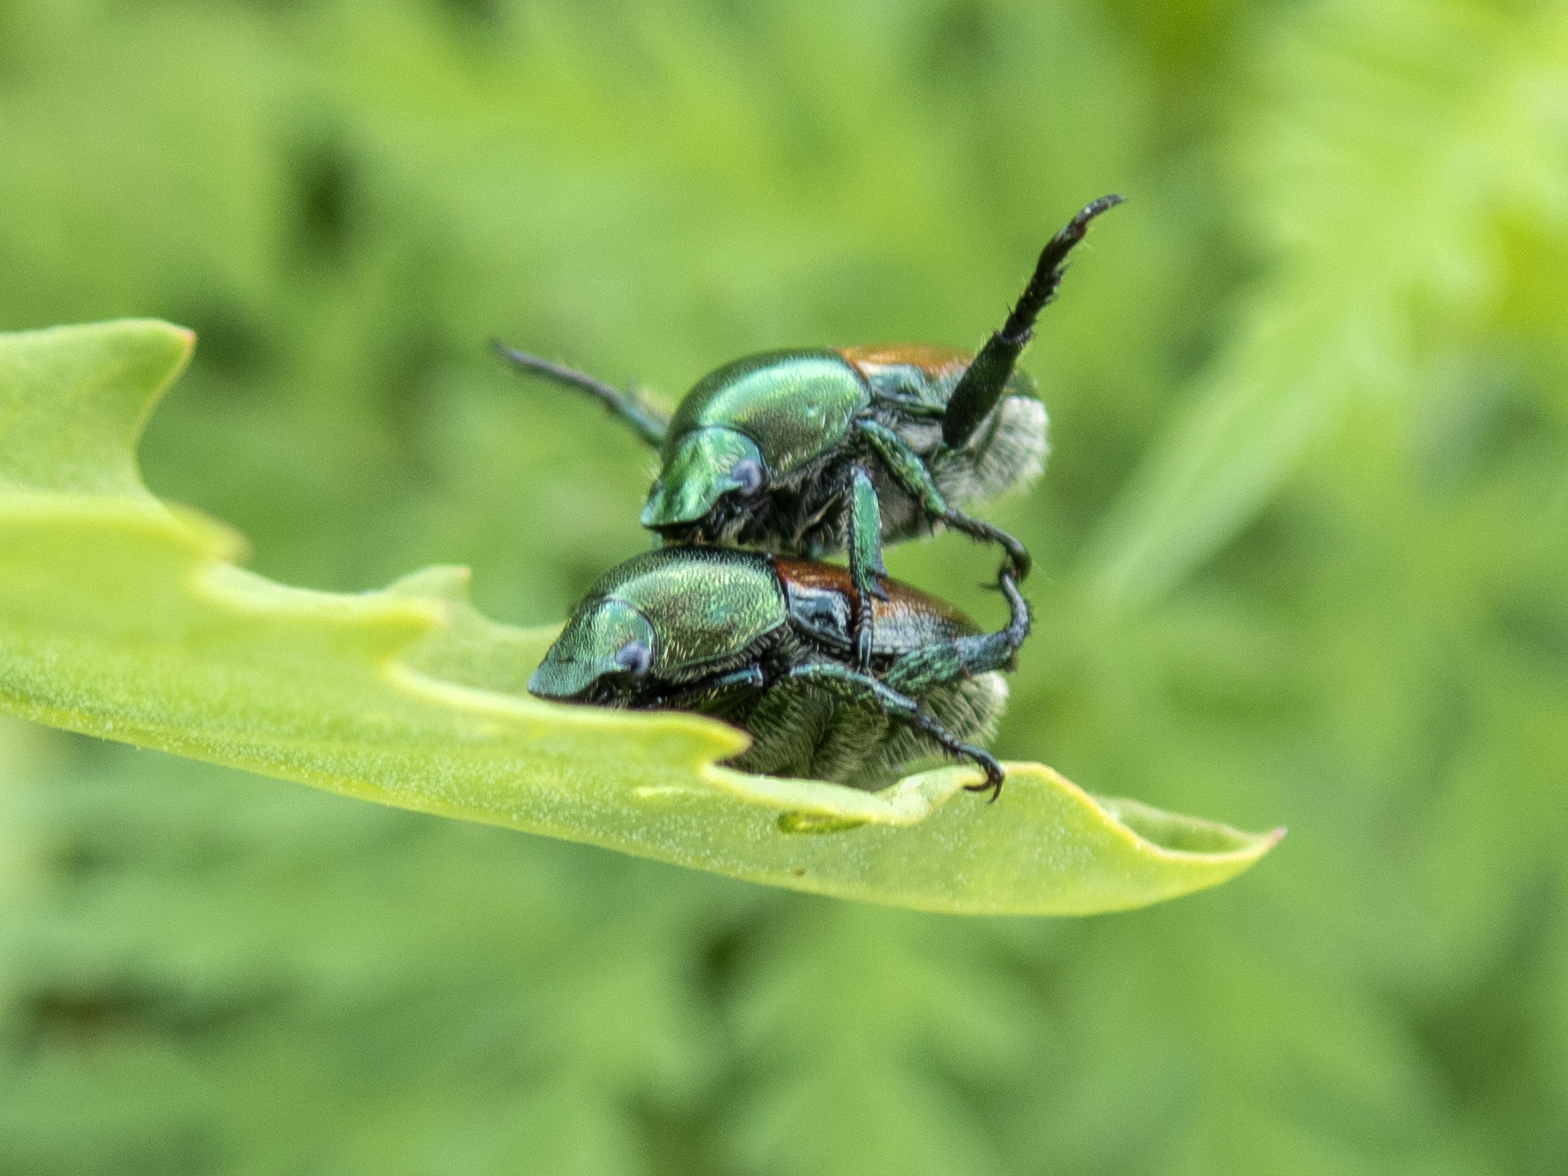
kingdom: Animalia
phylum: Arthropoda
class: Insecta
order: Coleoptera
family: Scarabaeidae
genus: Popillia
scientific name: Popillia japonica
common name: Japanese beetle
